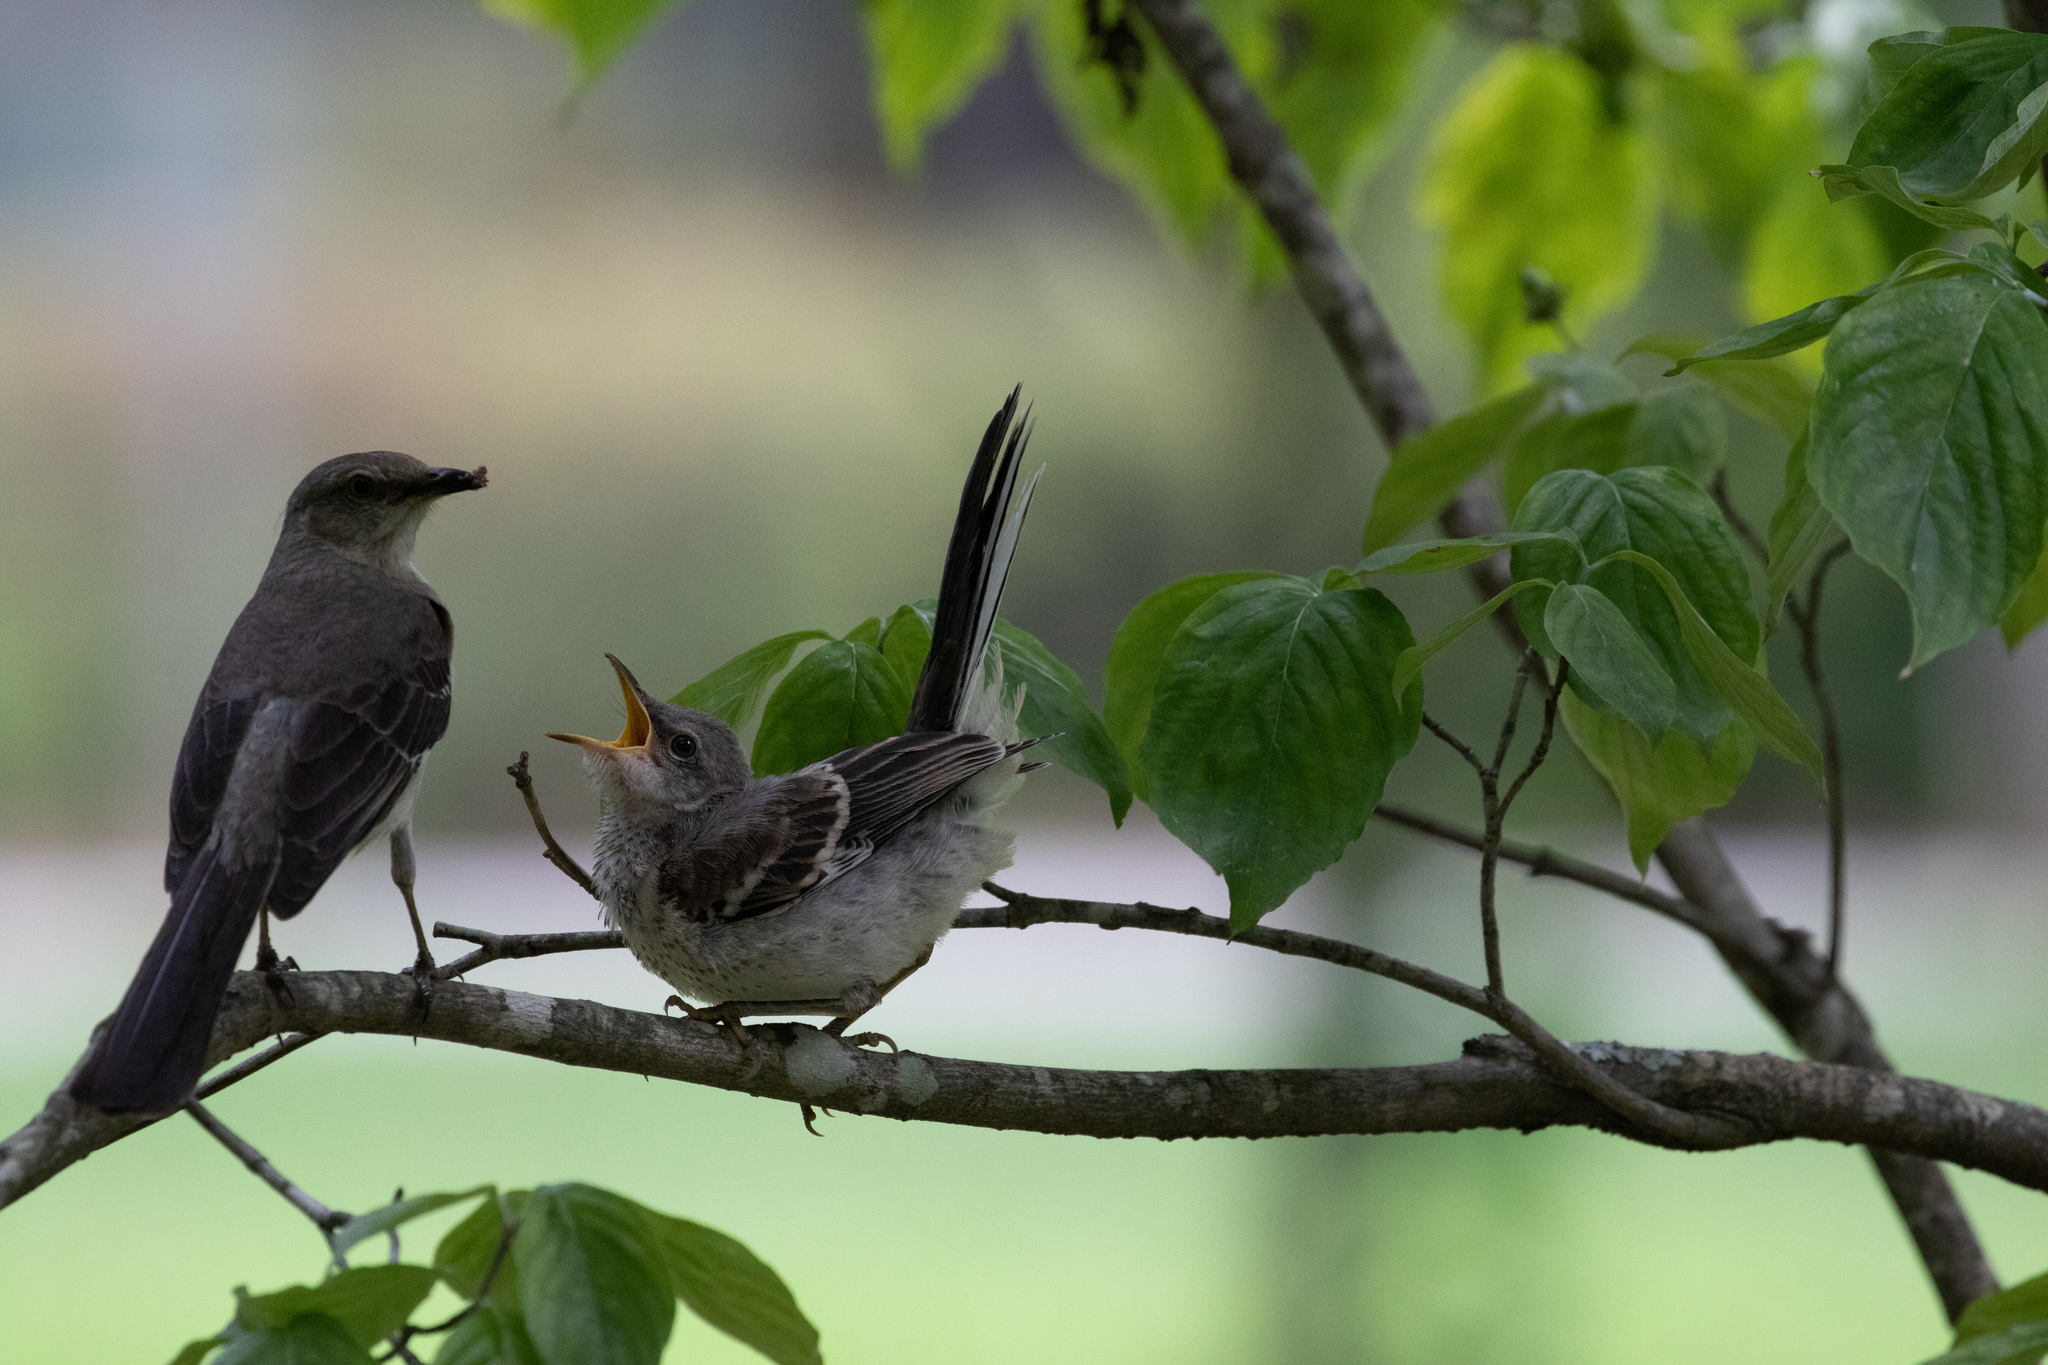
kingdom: Animalia
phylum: Chordata
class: Aves
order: Passeriformes
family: Mimidae
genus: Mimus
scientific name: Mimus polyglottos
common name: Northern mockingbird
